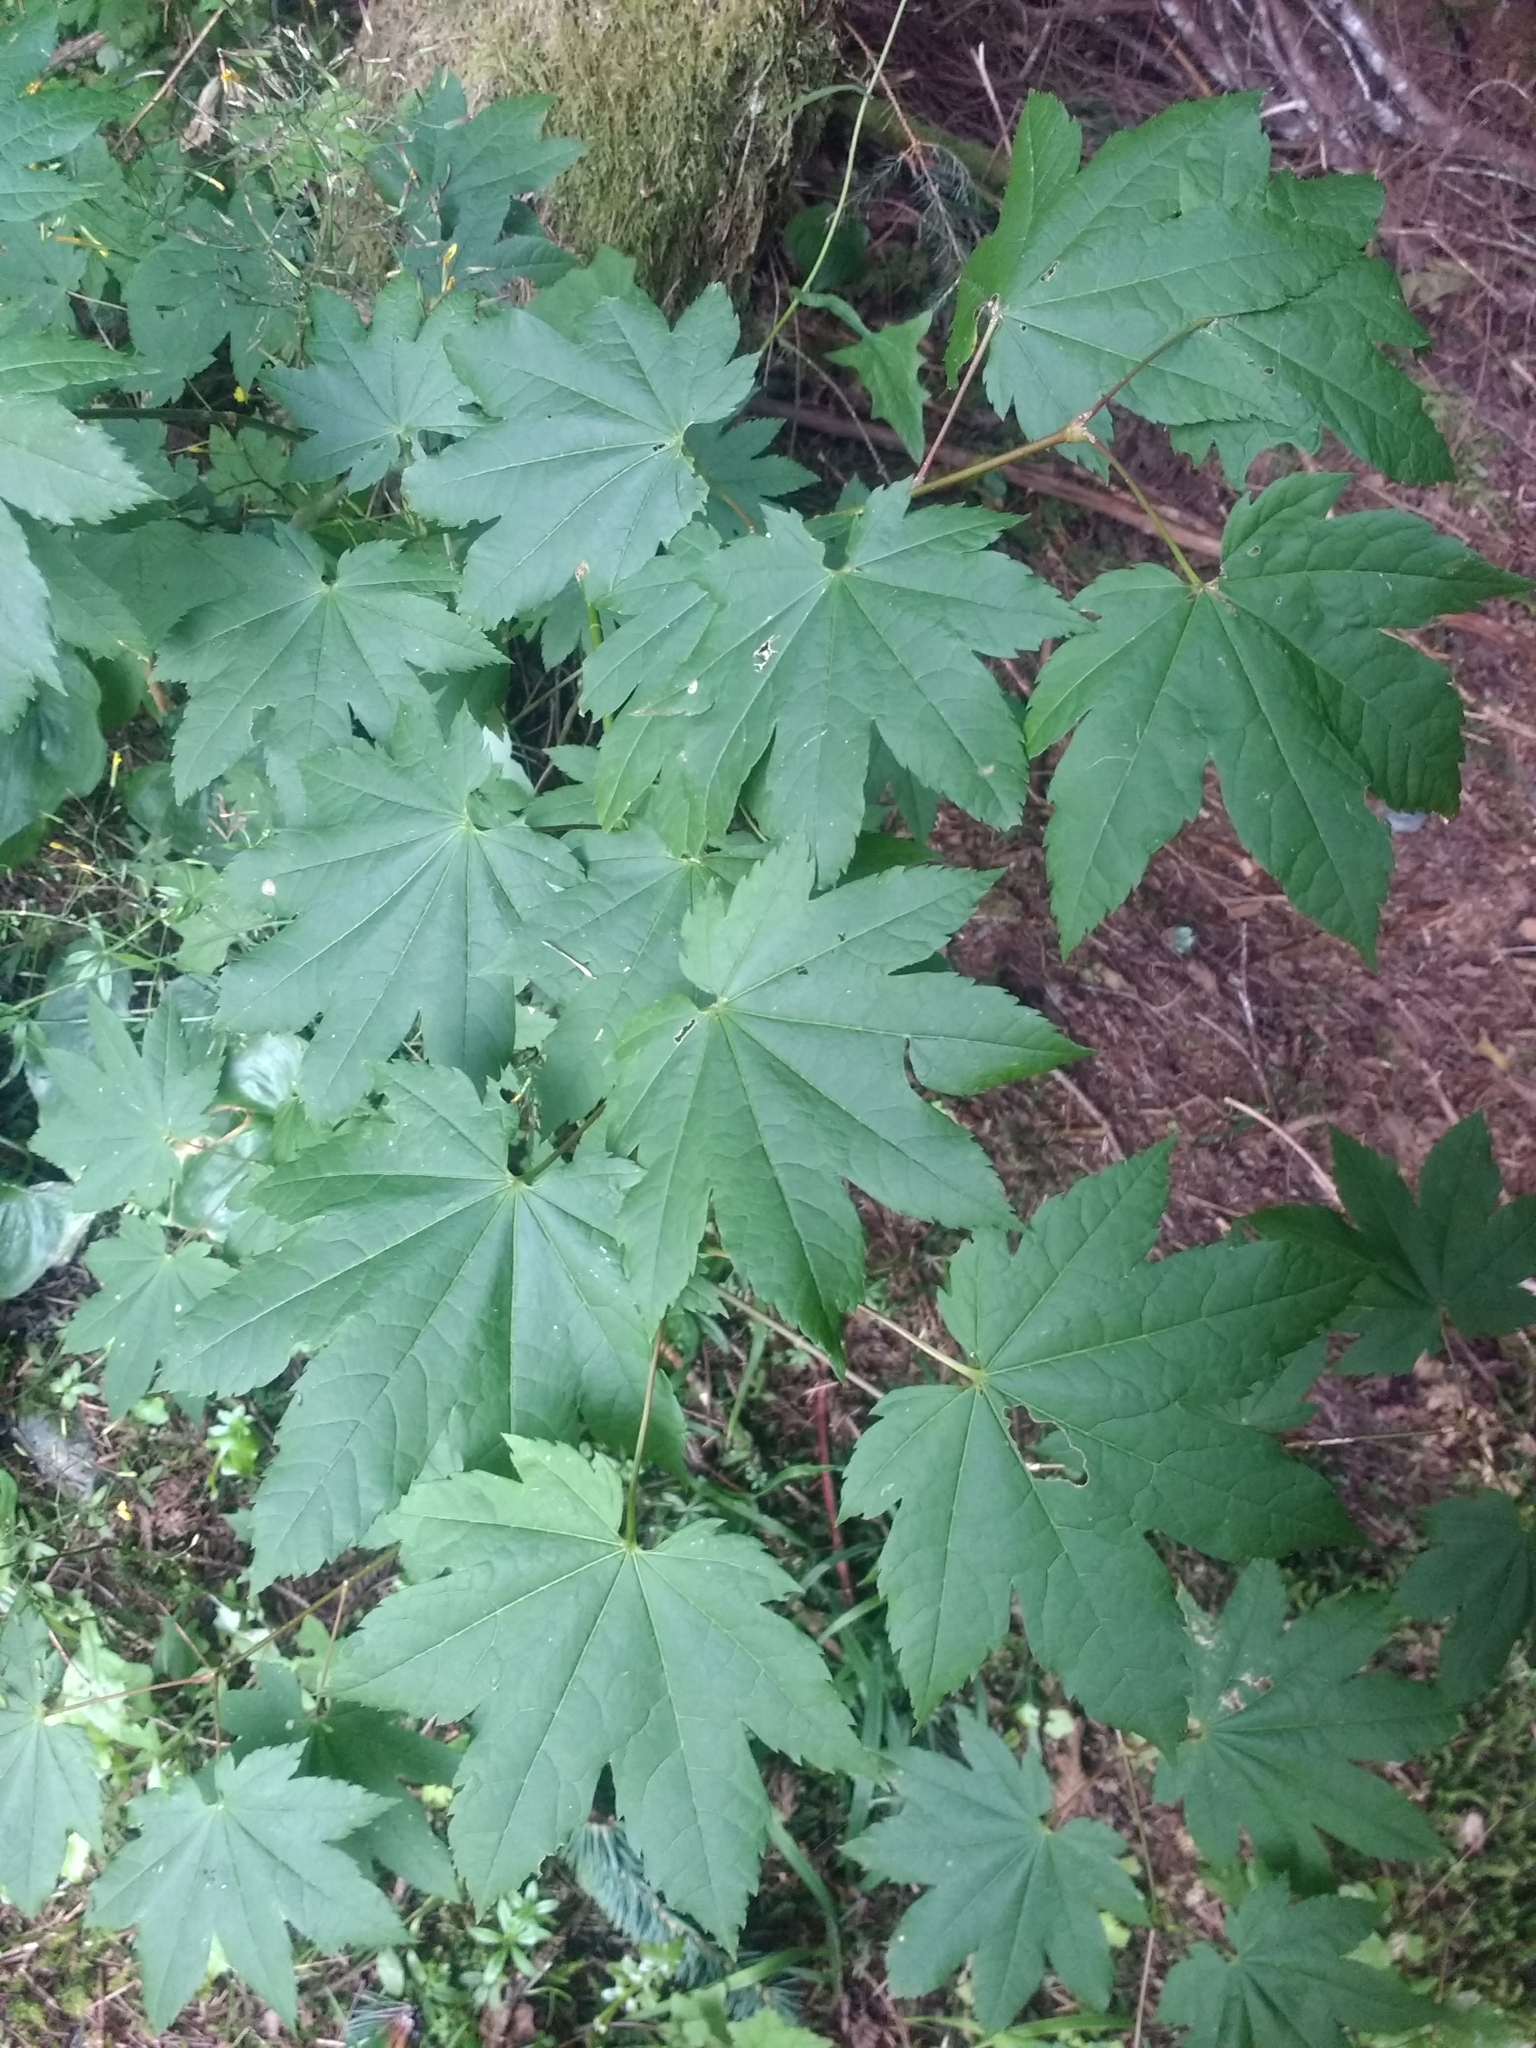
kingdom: Plantae
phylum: Tracheophyta
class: Magnoliopsida
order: Sapindales
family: Sapindaceae
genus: Acer
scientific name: Acer circinatum
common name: Vine maple
